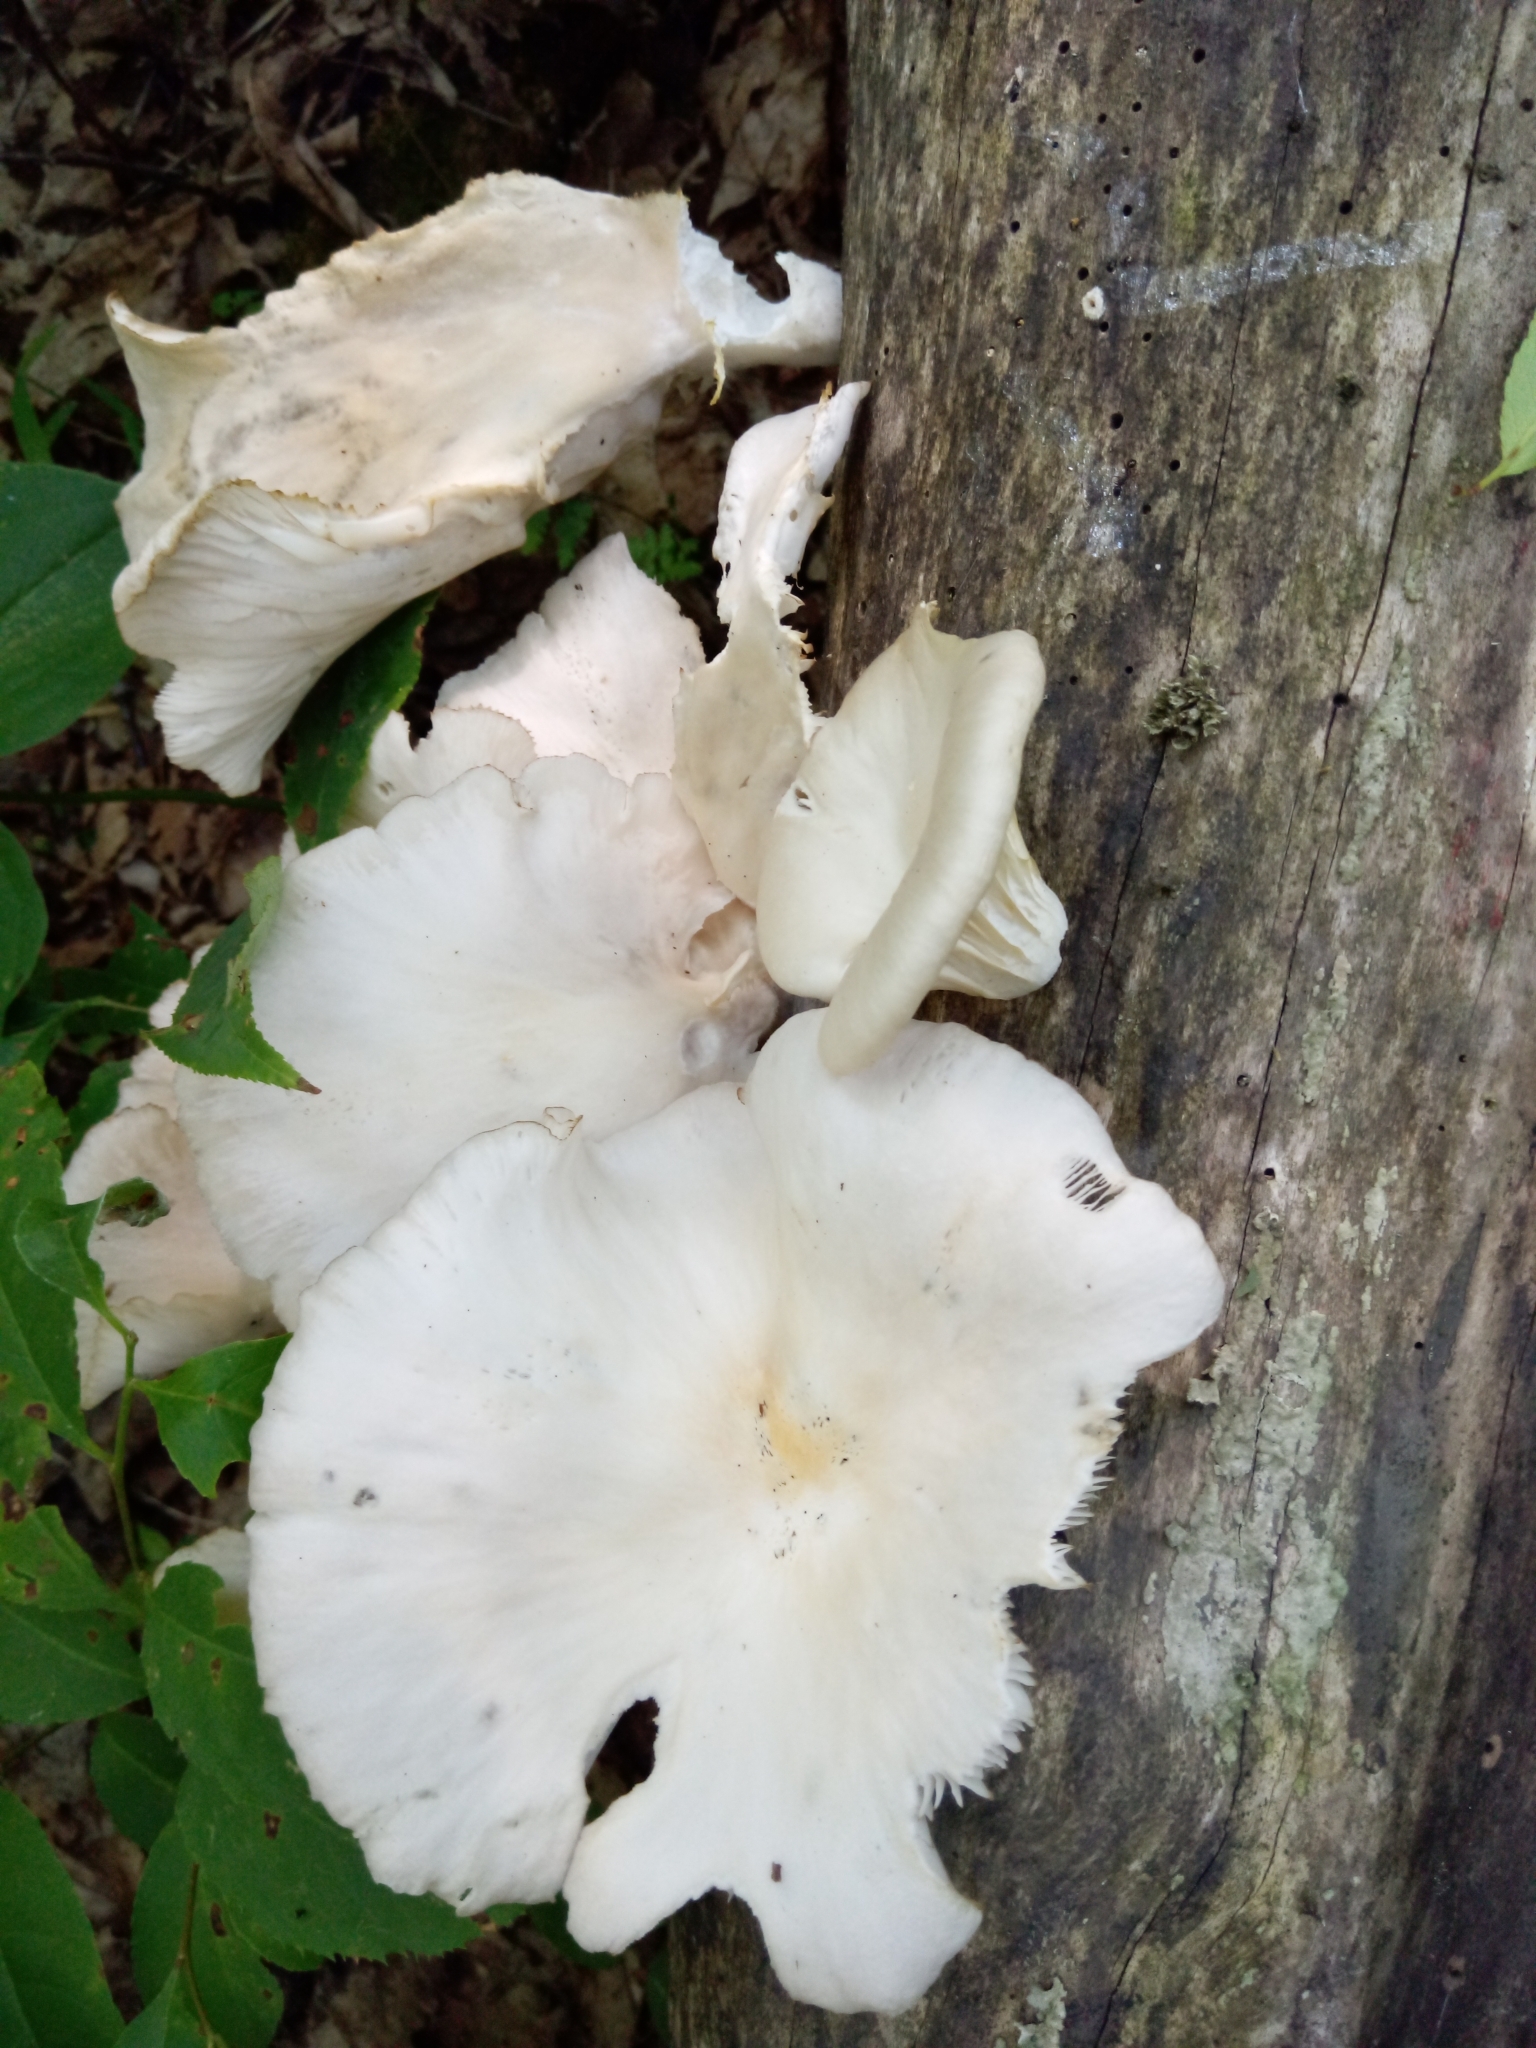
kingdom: Fungi
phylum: Basidiomycota
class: Agaricomycetes
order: Agaricales
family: Pleurotaceae
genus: Pleurotus
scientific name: Pleurotus pulmonarius
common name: Pale oyster
